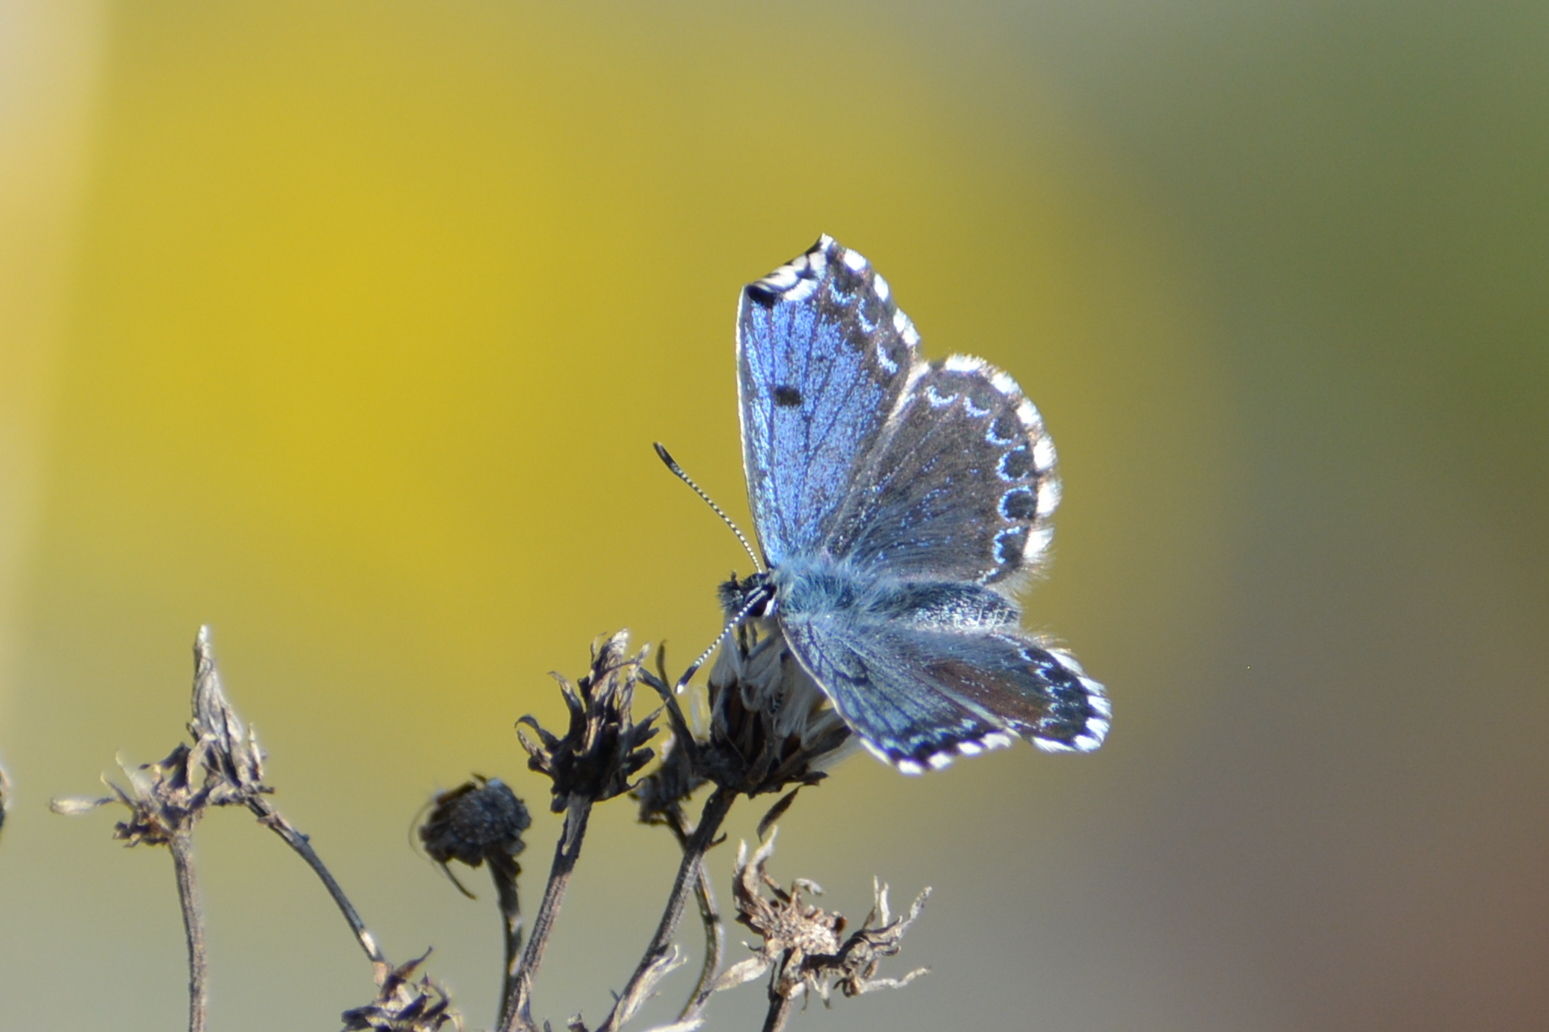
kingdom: Animalia
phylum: Arthropoda
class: Insecta
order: Lepidoptera
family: Lycaenidae
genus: Scolitantides
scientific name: Scolitantides orion
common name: Chequered blue
